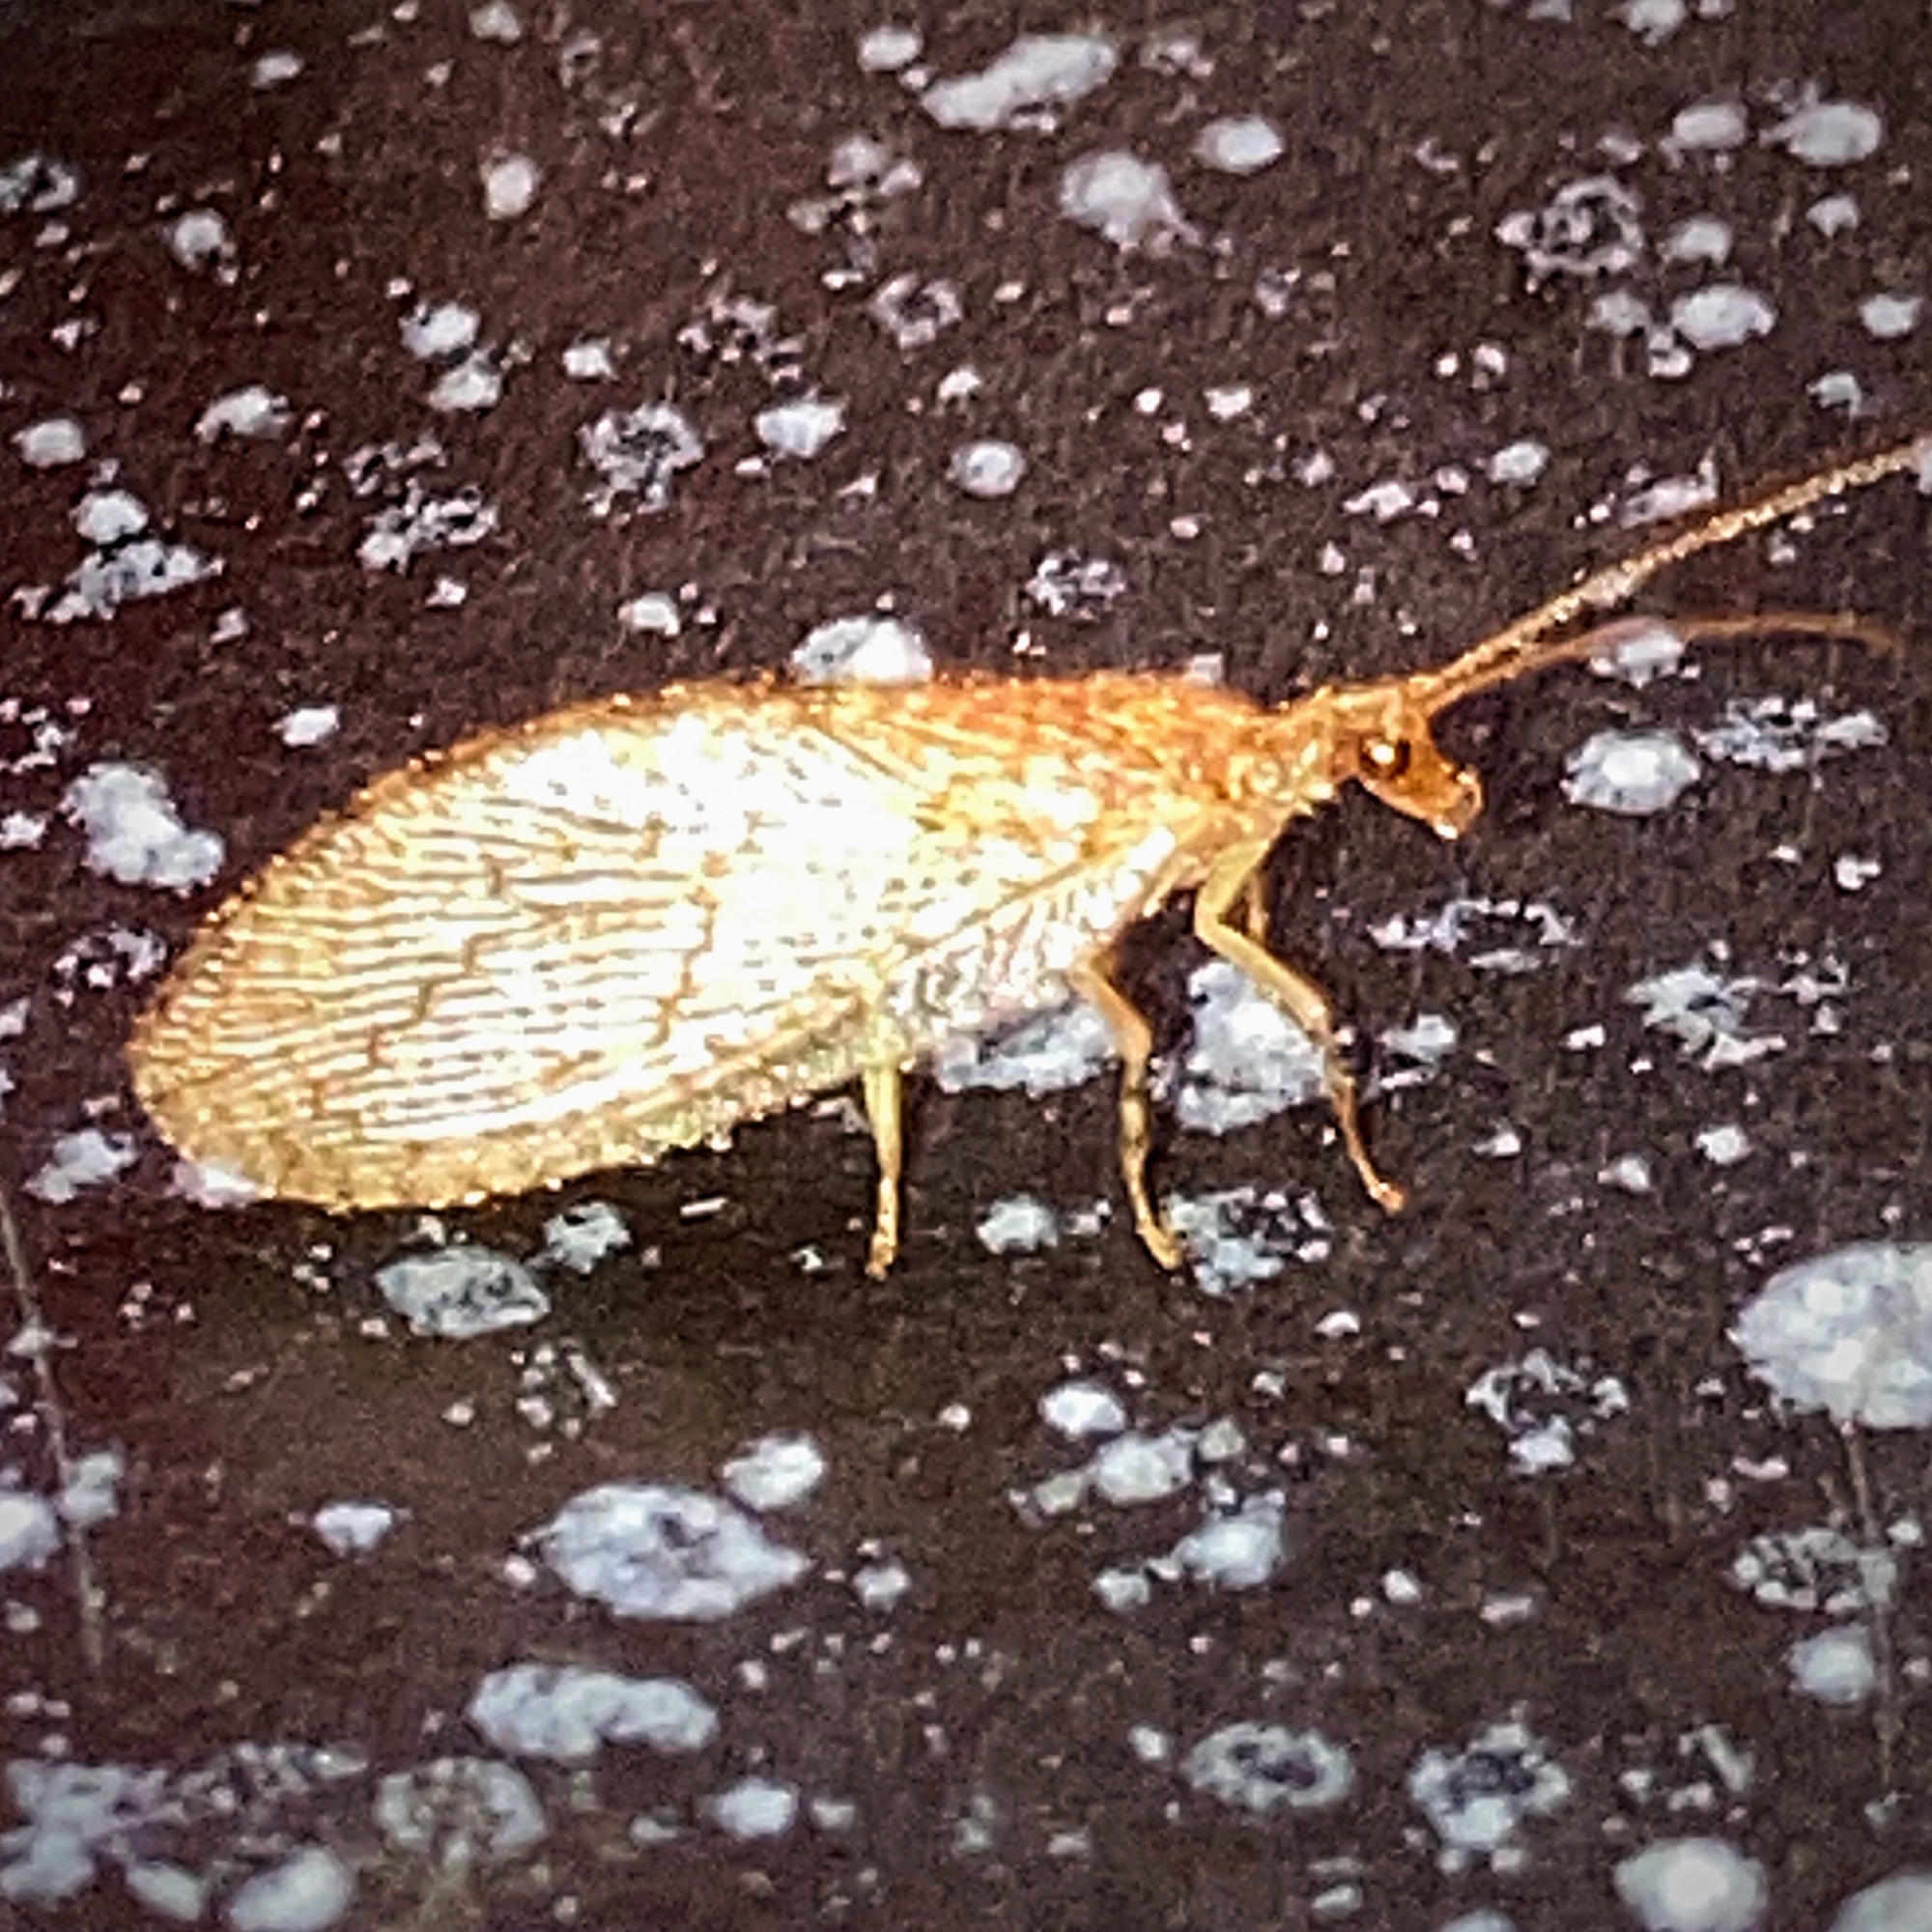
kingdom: Animalia
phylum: Arthropoda
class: Insecta
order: Neuroptera
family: Hemerobiidae
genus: Micromus
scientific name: Micromus posticus
